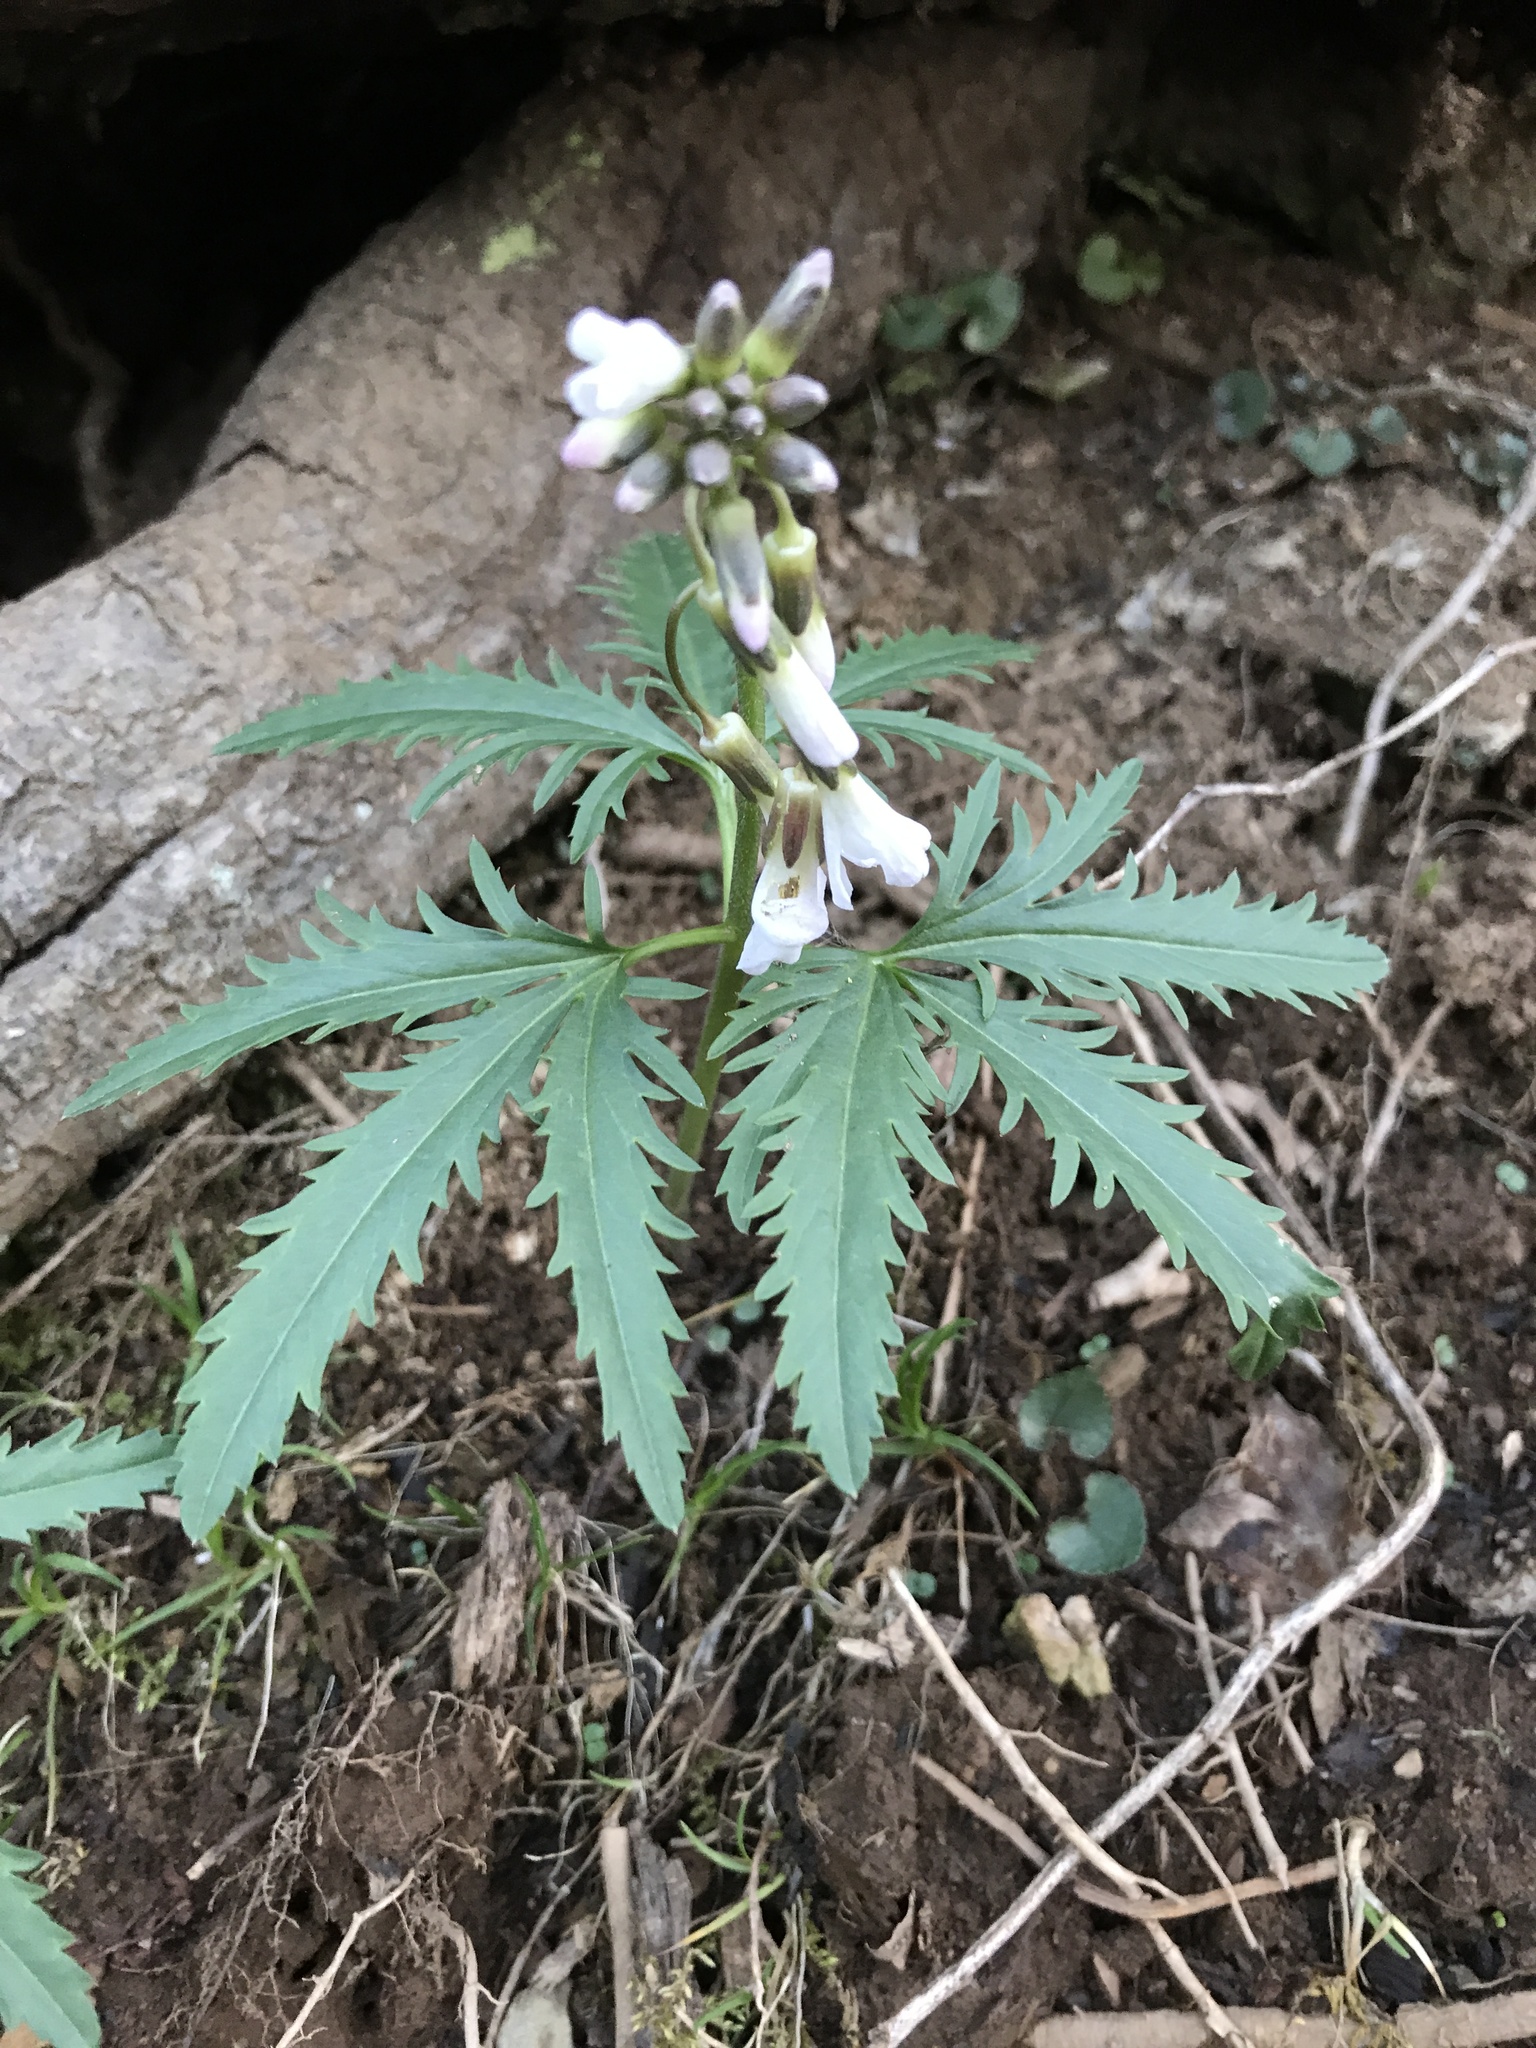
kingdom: Plantae
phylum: Tracheophyta
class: Magnoliopsida
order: Brassicales
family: Brassicaceae
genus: Cardamine
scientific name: Cardamine concatenata
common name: Cut-leaf toothcup
